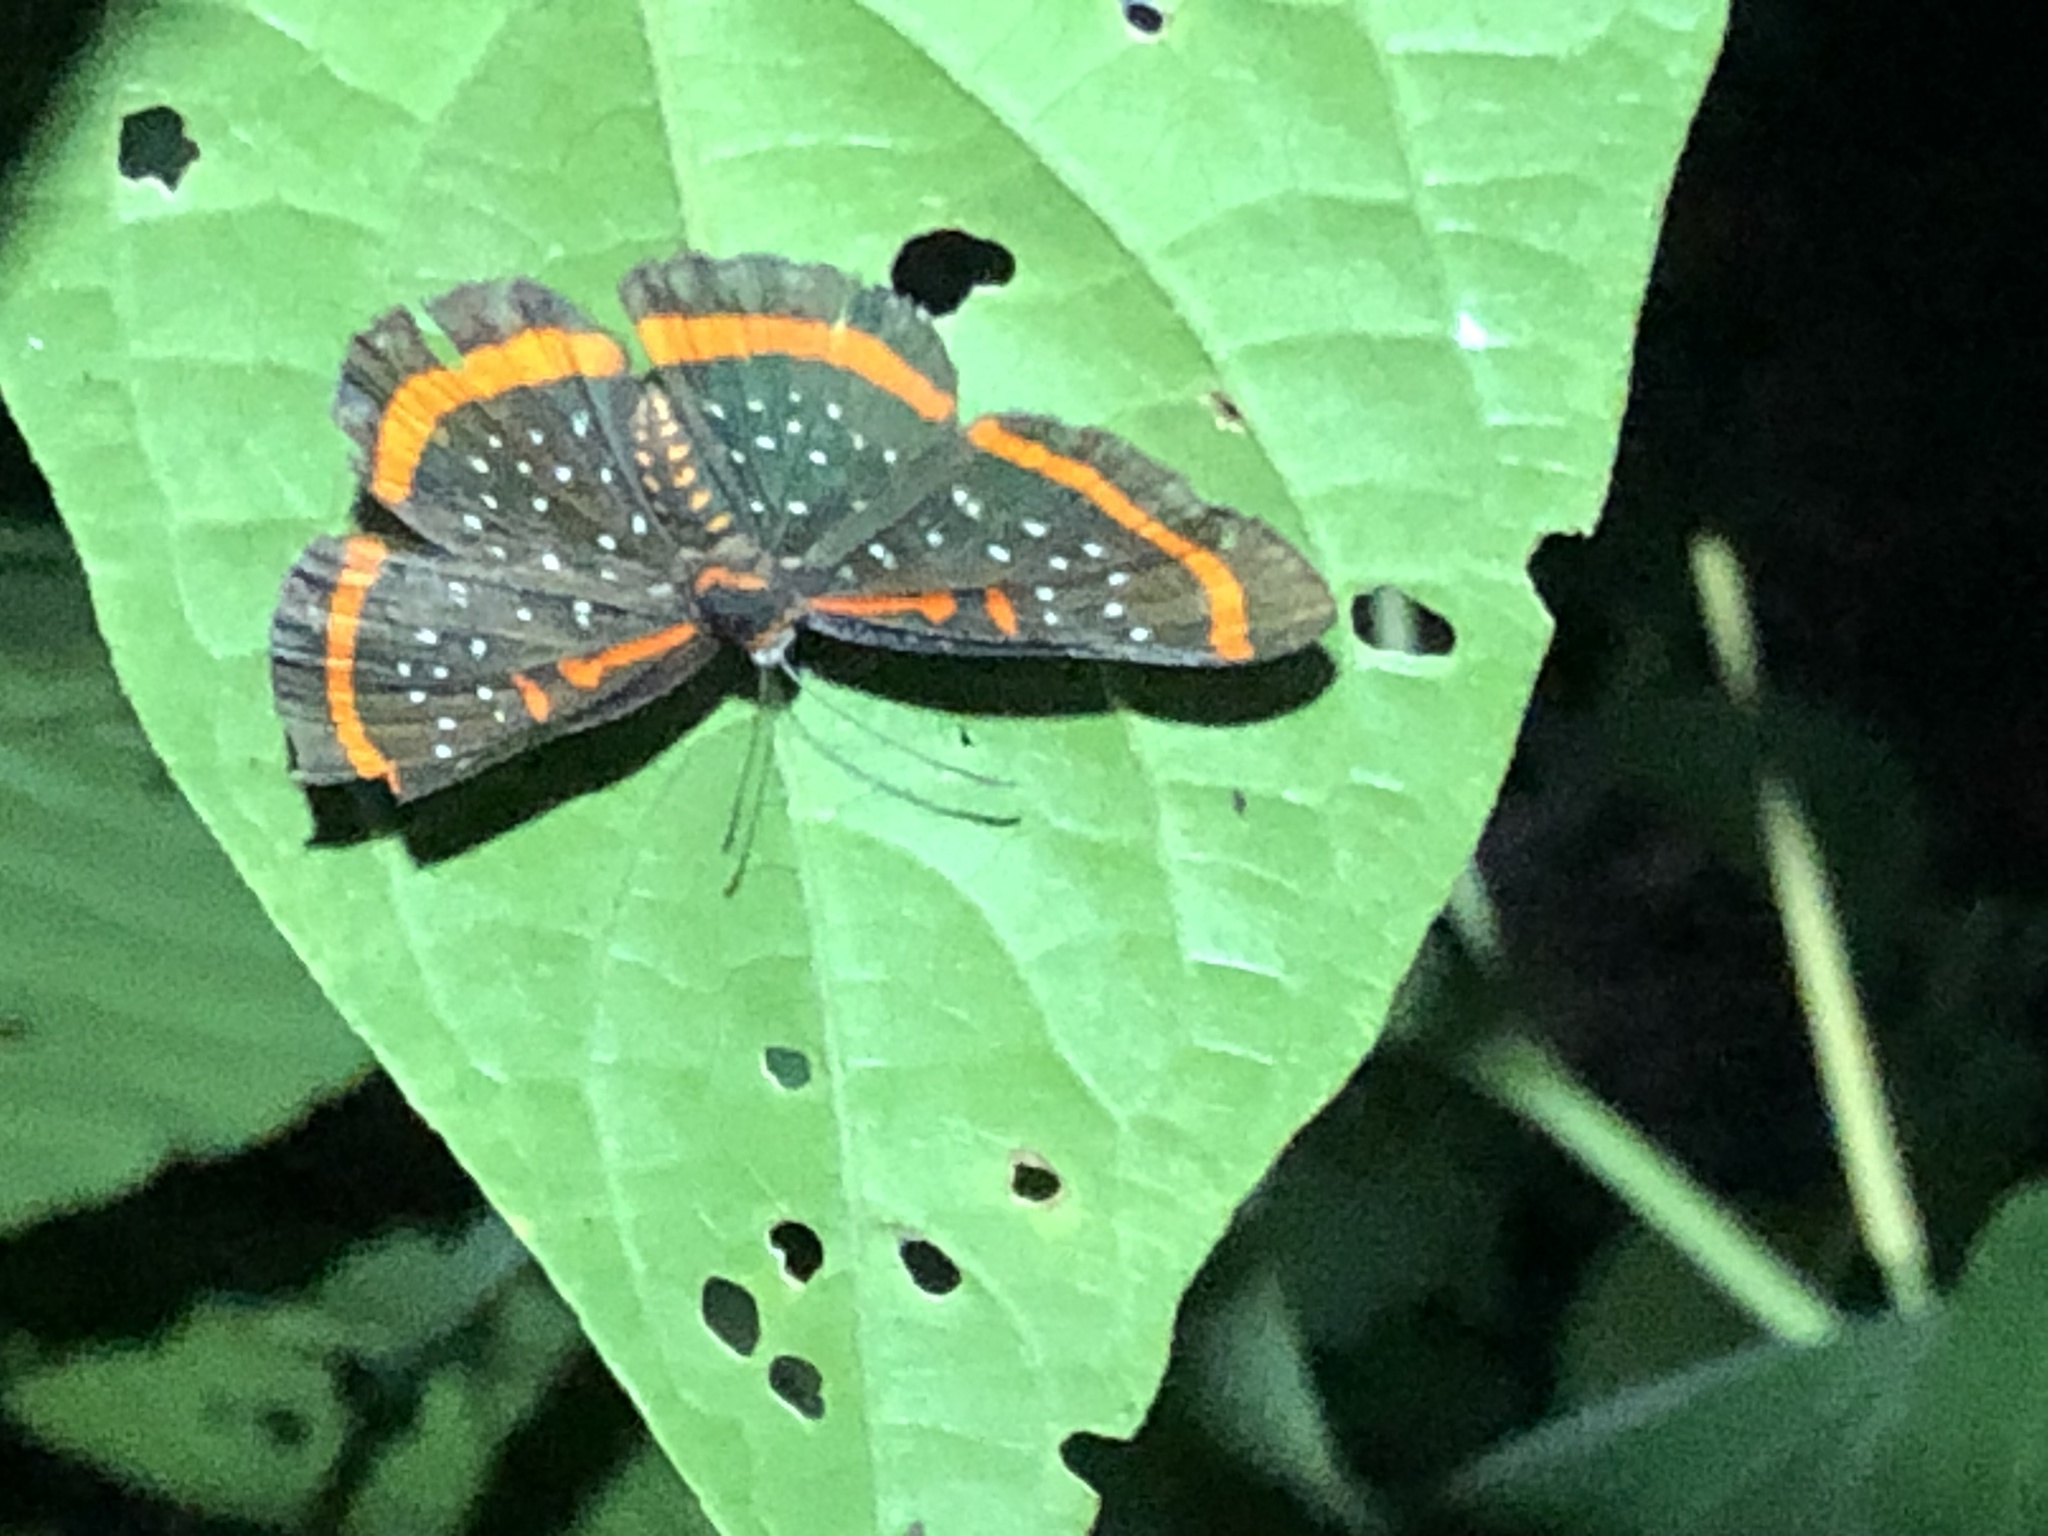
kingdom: Animalia
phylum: Arthropoda
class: Insecta
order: Lepidoptera
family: Riodinidae
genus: Amarynthis
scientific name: Amarynthis meneria
